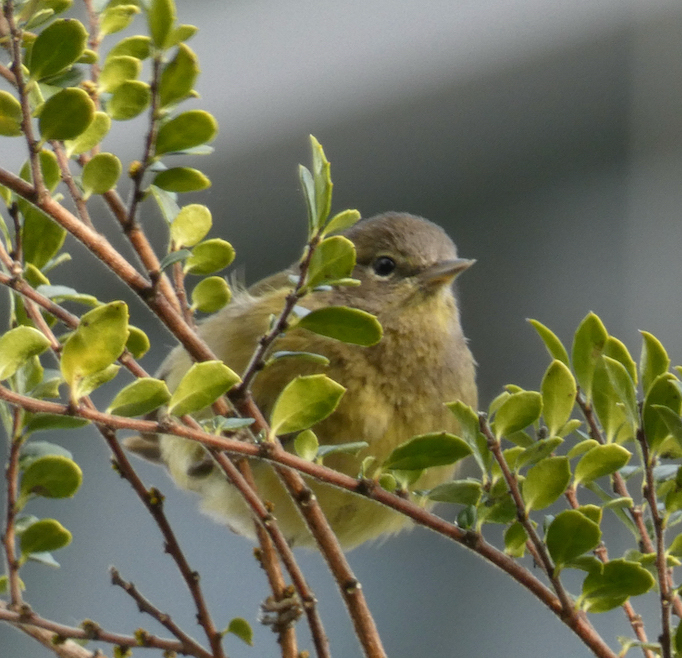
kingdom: Animalia
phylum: Chordata
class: Aves
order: Passeriformes
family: Parulidae
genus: Leiothlypis
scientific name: Leiothlypis celata
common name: Orange-crowned warbler
